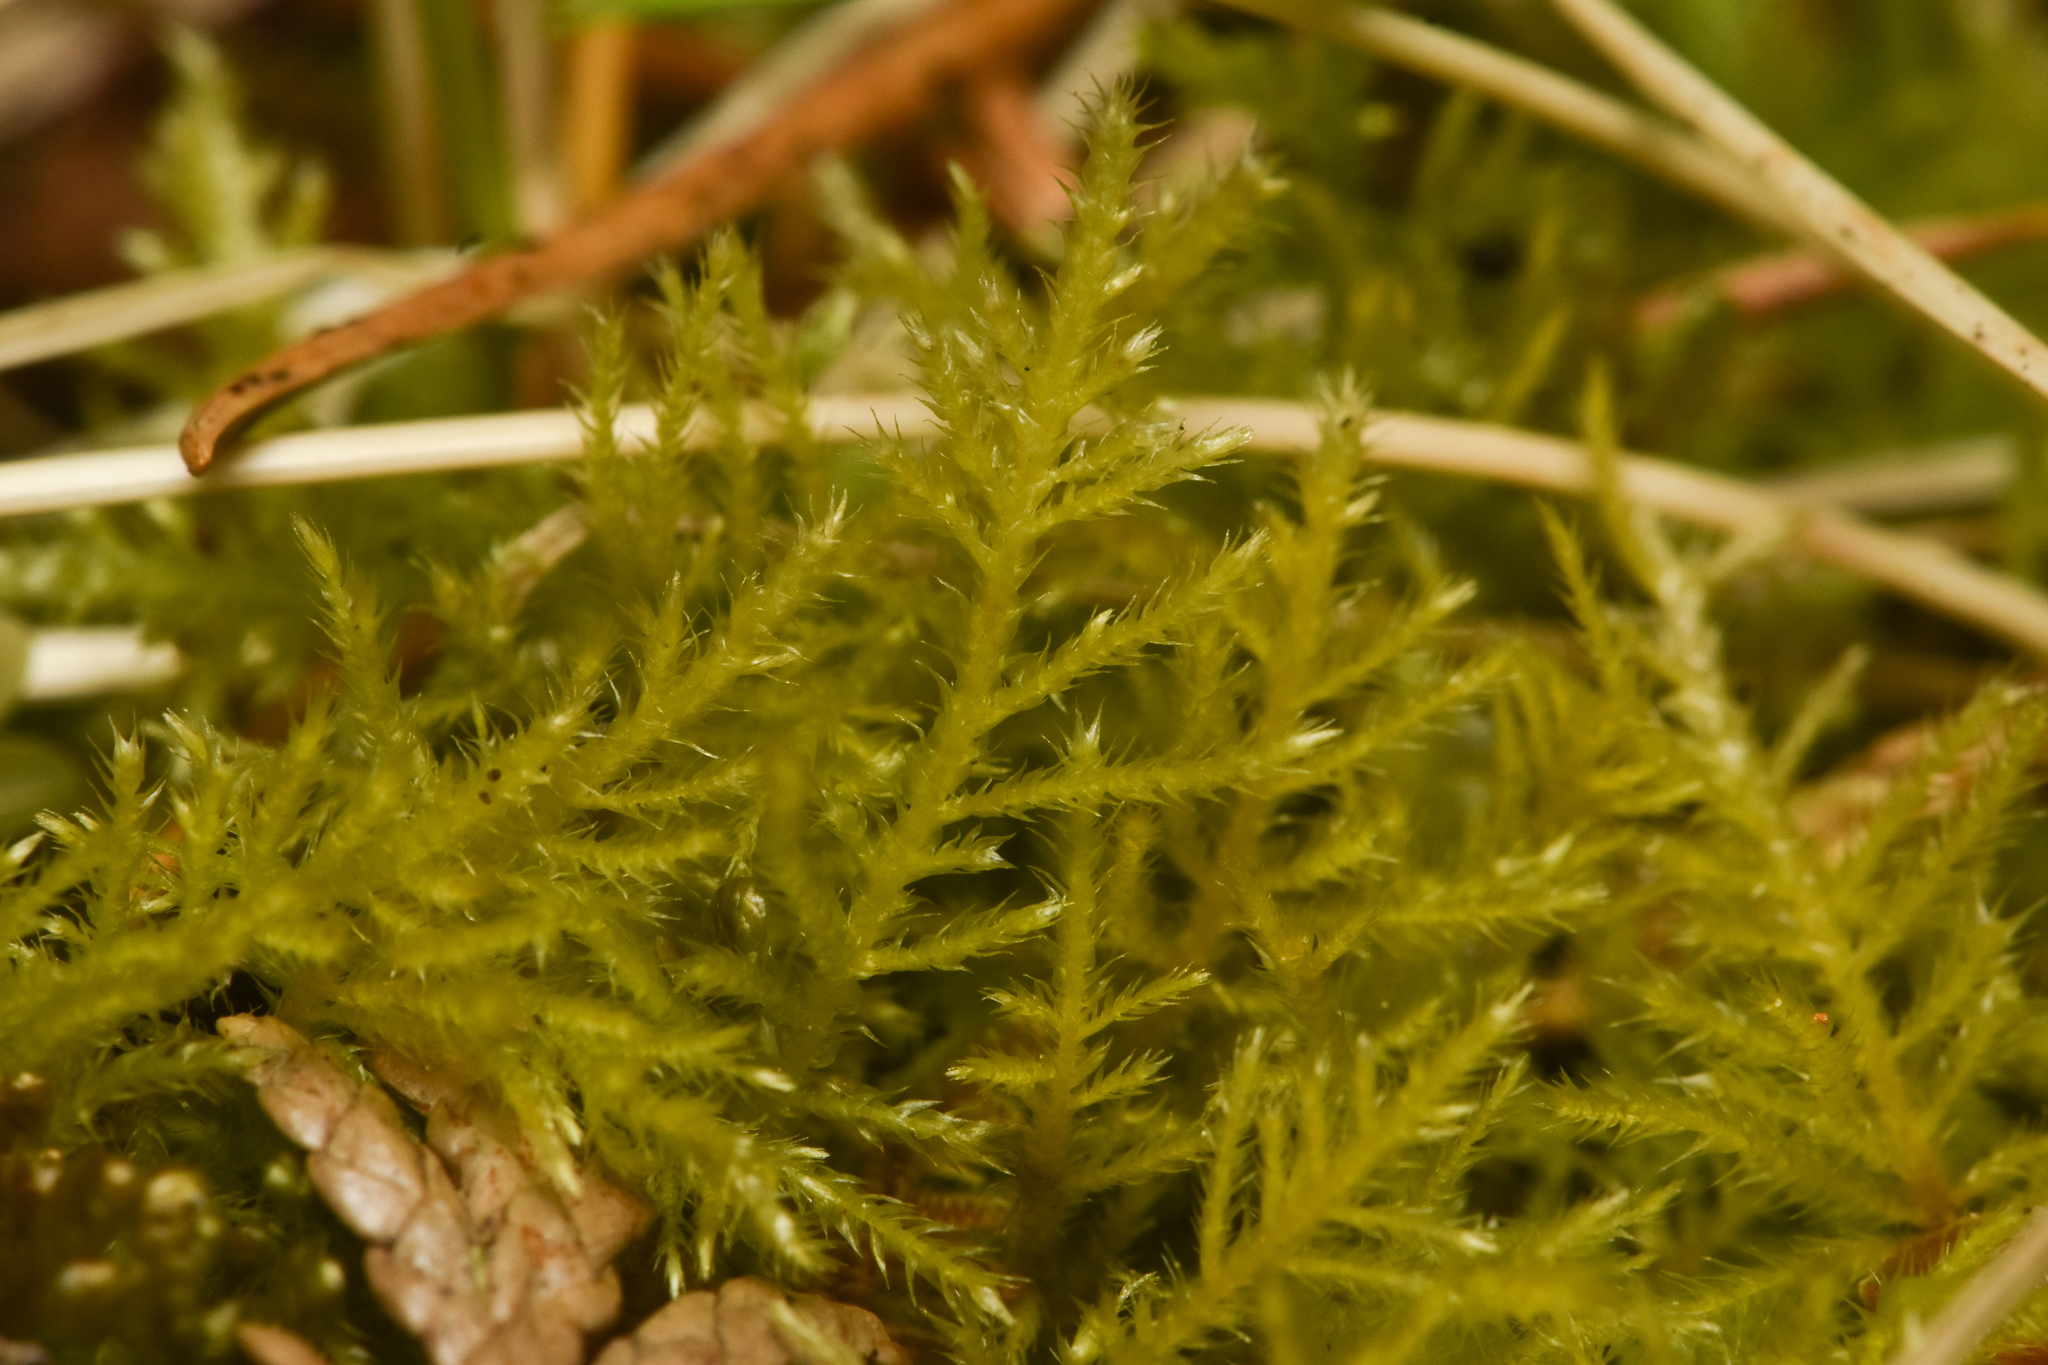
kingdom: Plantae
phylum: Bryophyta
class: Bryopsida
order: Hypnales
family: Brachytheciaceae
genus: Kindbergia
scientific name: Kindbergia praelonga
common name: Slender beaked moss
